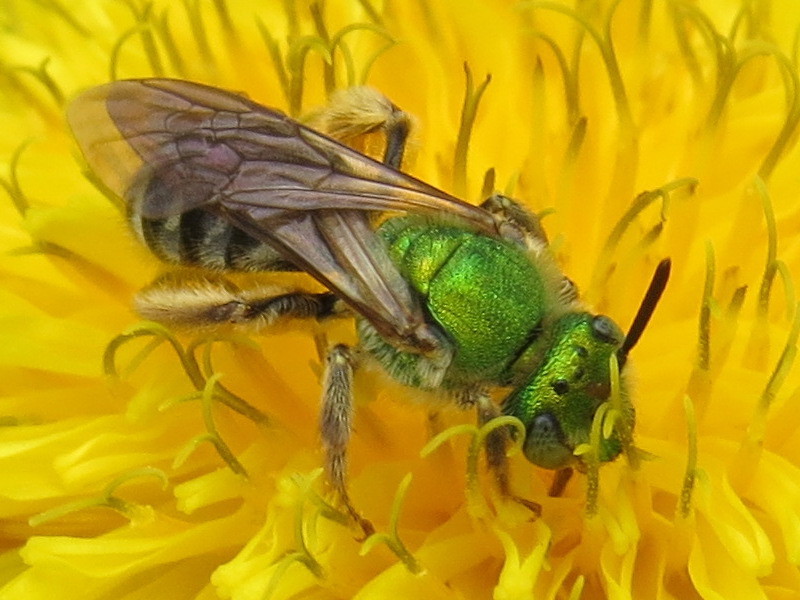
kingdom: Animalia
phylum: Arthropoda
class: Insecta
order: Hymenoptera
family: Halictidae
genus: Agapostemon
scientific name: Agapostemon virescens
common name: Bicolored striped sweat bee
